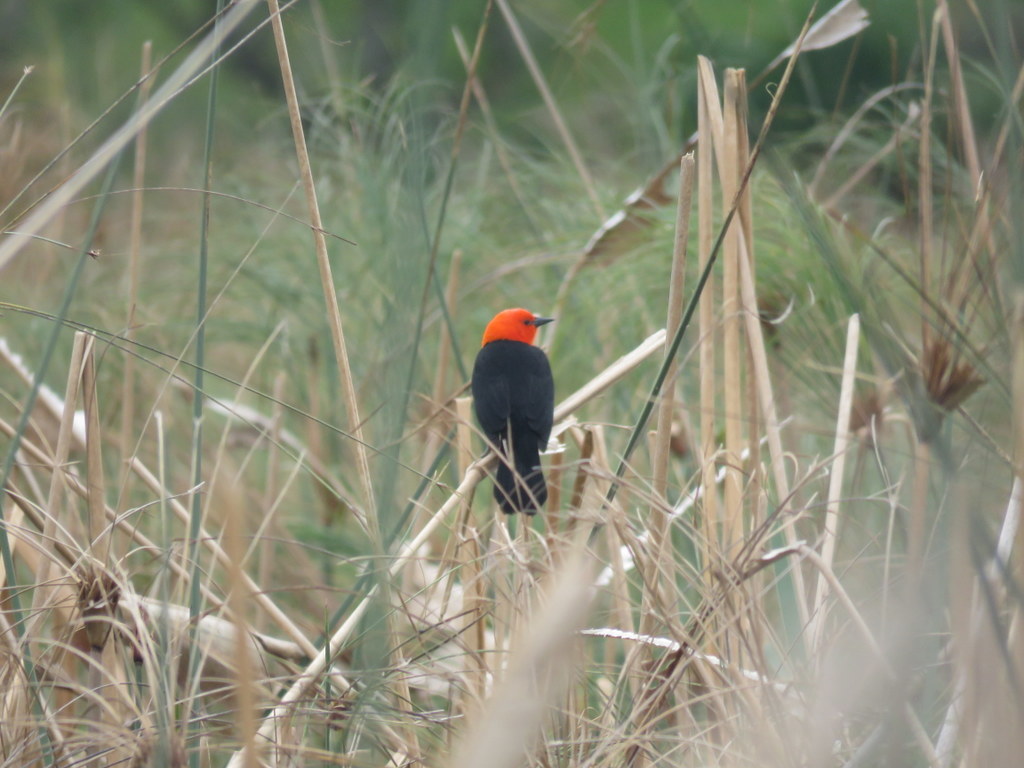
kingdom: Animalia
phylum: Chordata
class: Aves
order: Passeriformes
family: Icteridae
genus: Amblyramphus
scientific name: Amblyramphus holosericeus
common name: Scarlet-headed blackbird
